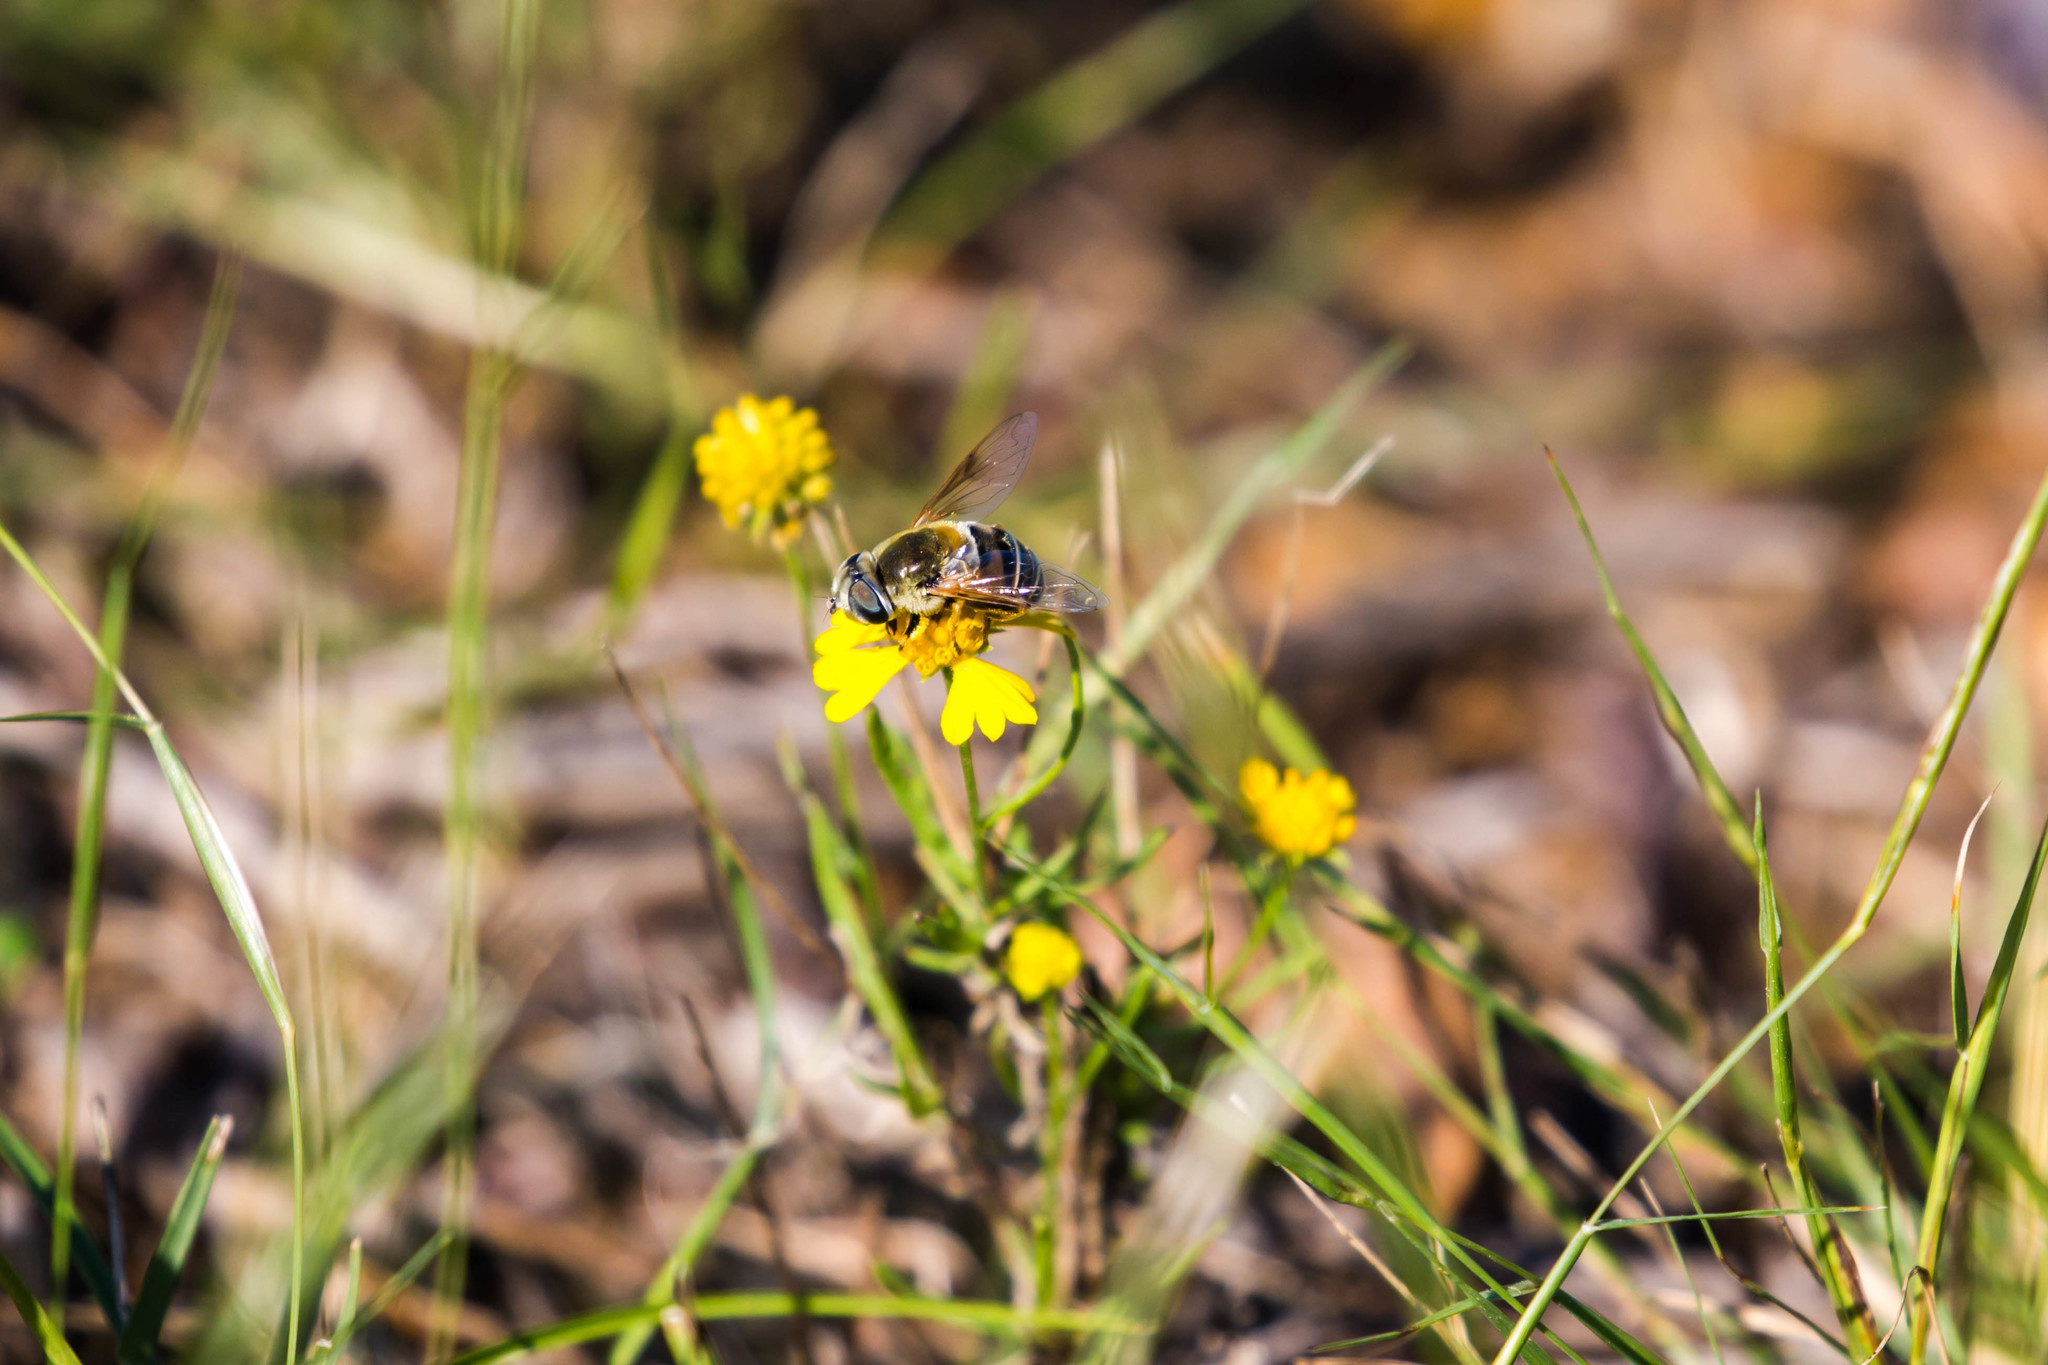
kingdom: Animalia
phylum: Arthropoda
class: Insecta
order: Diptera
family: Syrphidae
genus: Eristalis
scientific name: Eristalis stipator
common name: Yellow-shouldered drone fly
